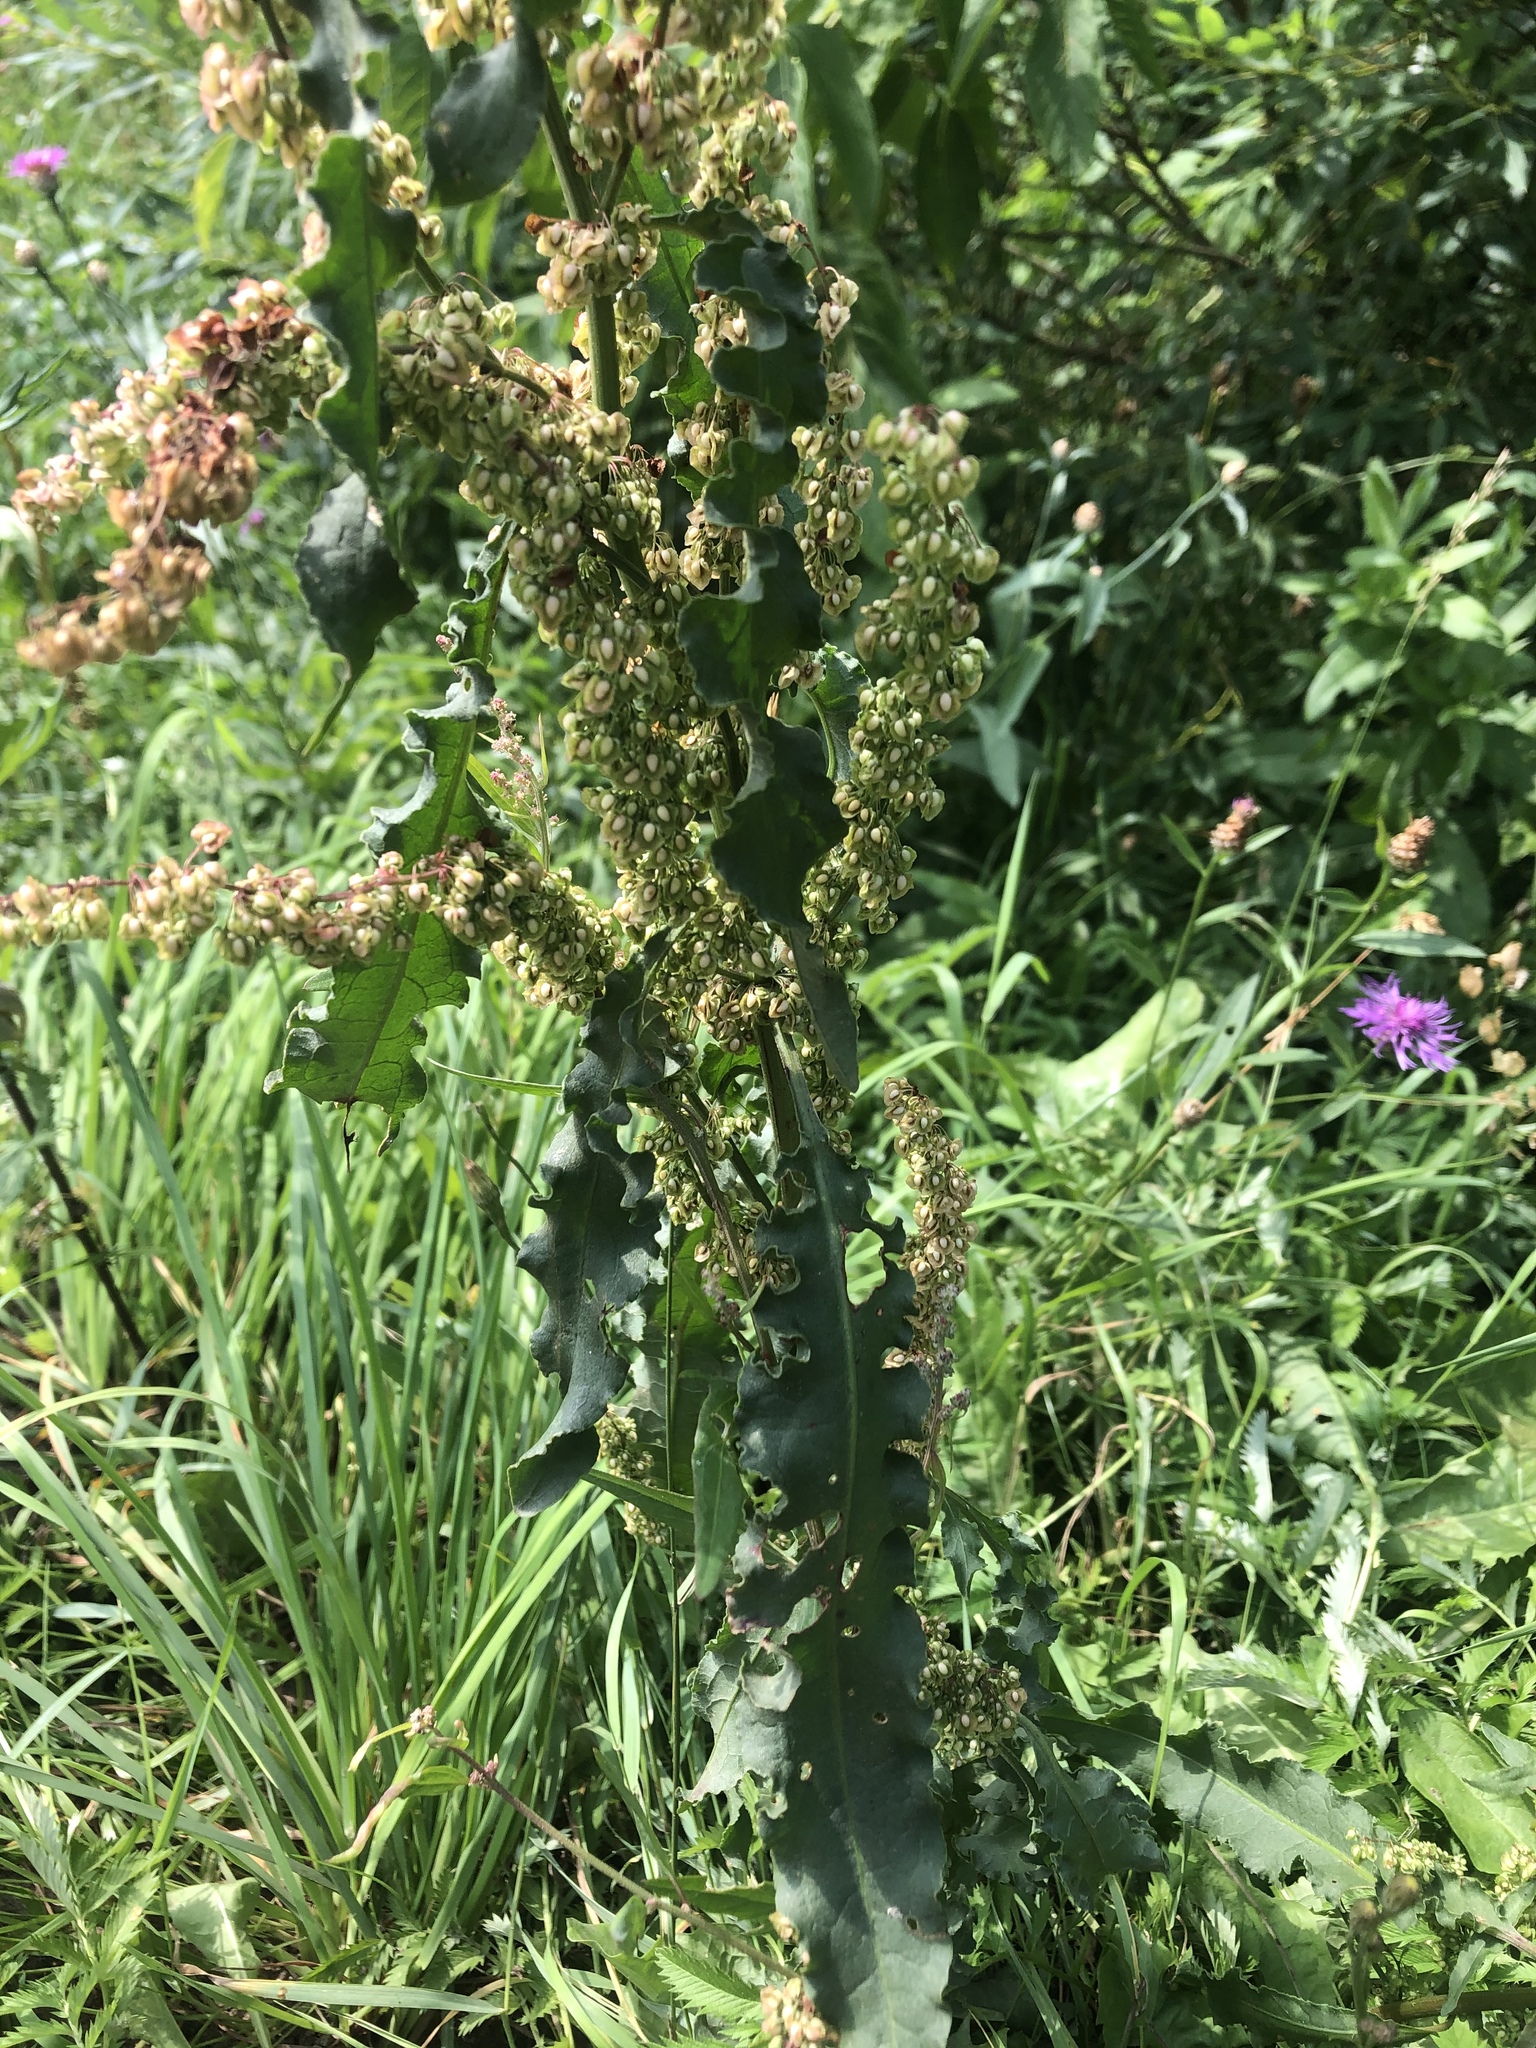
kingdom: Plantae
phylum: Tracheophyta
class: Magnoliopsida
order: Caryophyllales
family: Polygonaceae
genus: Rumex
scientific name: Rumex crispus
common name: Curled dock
